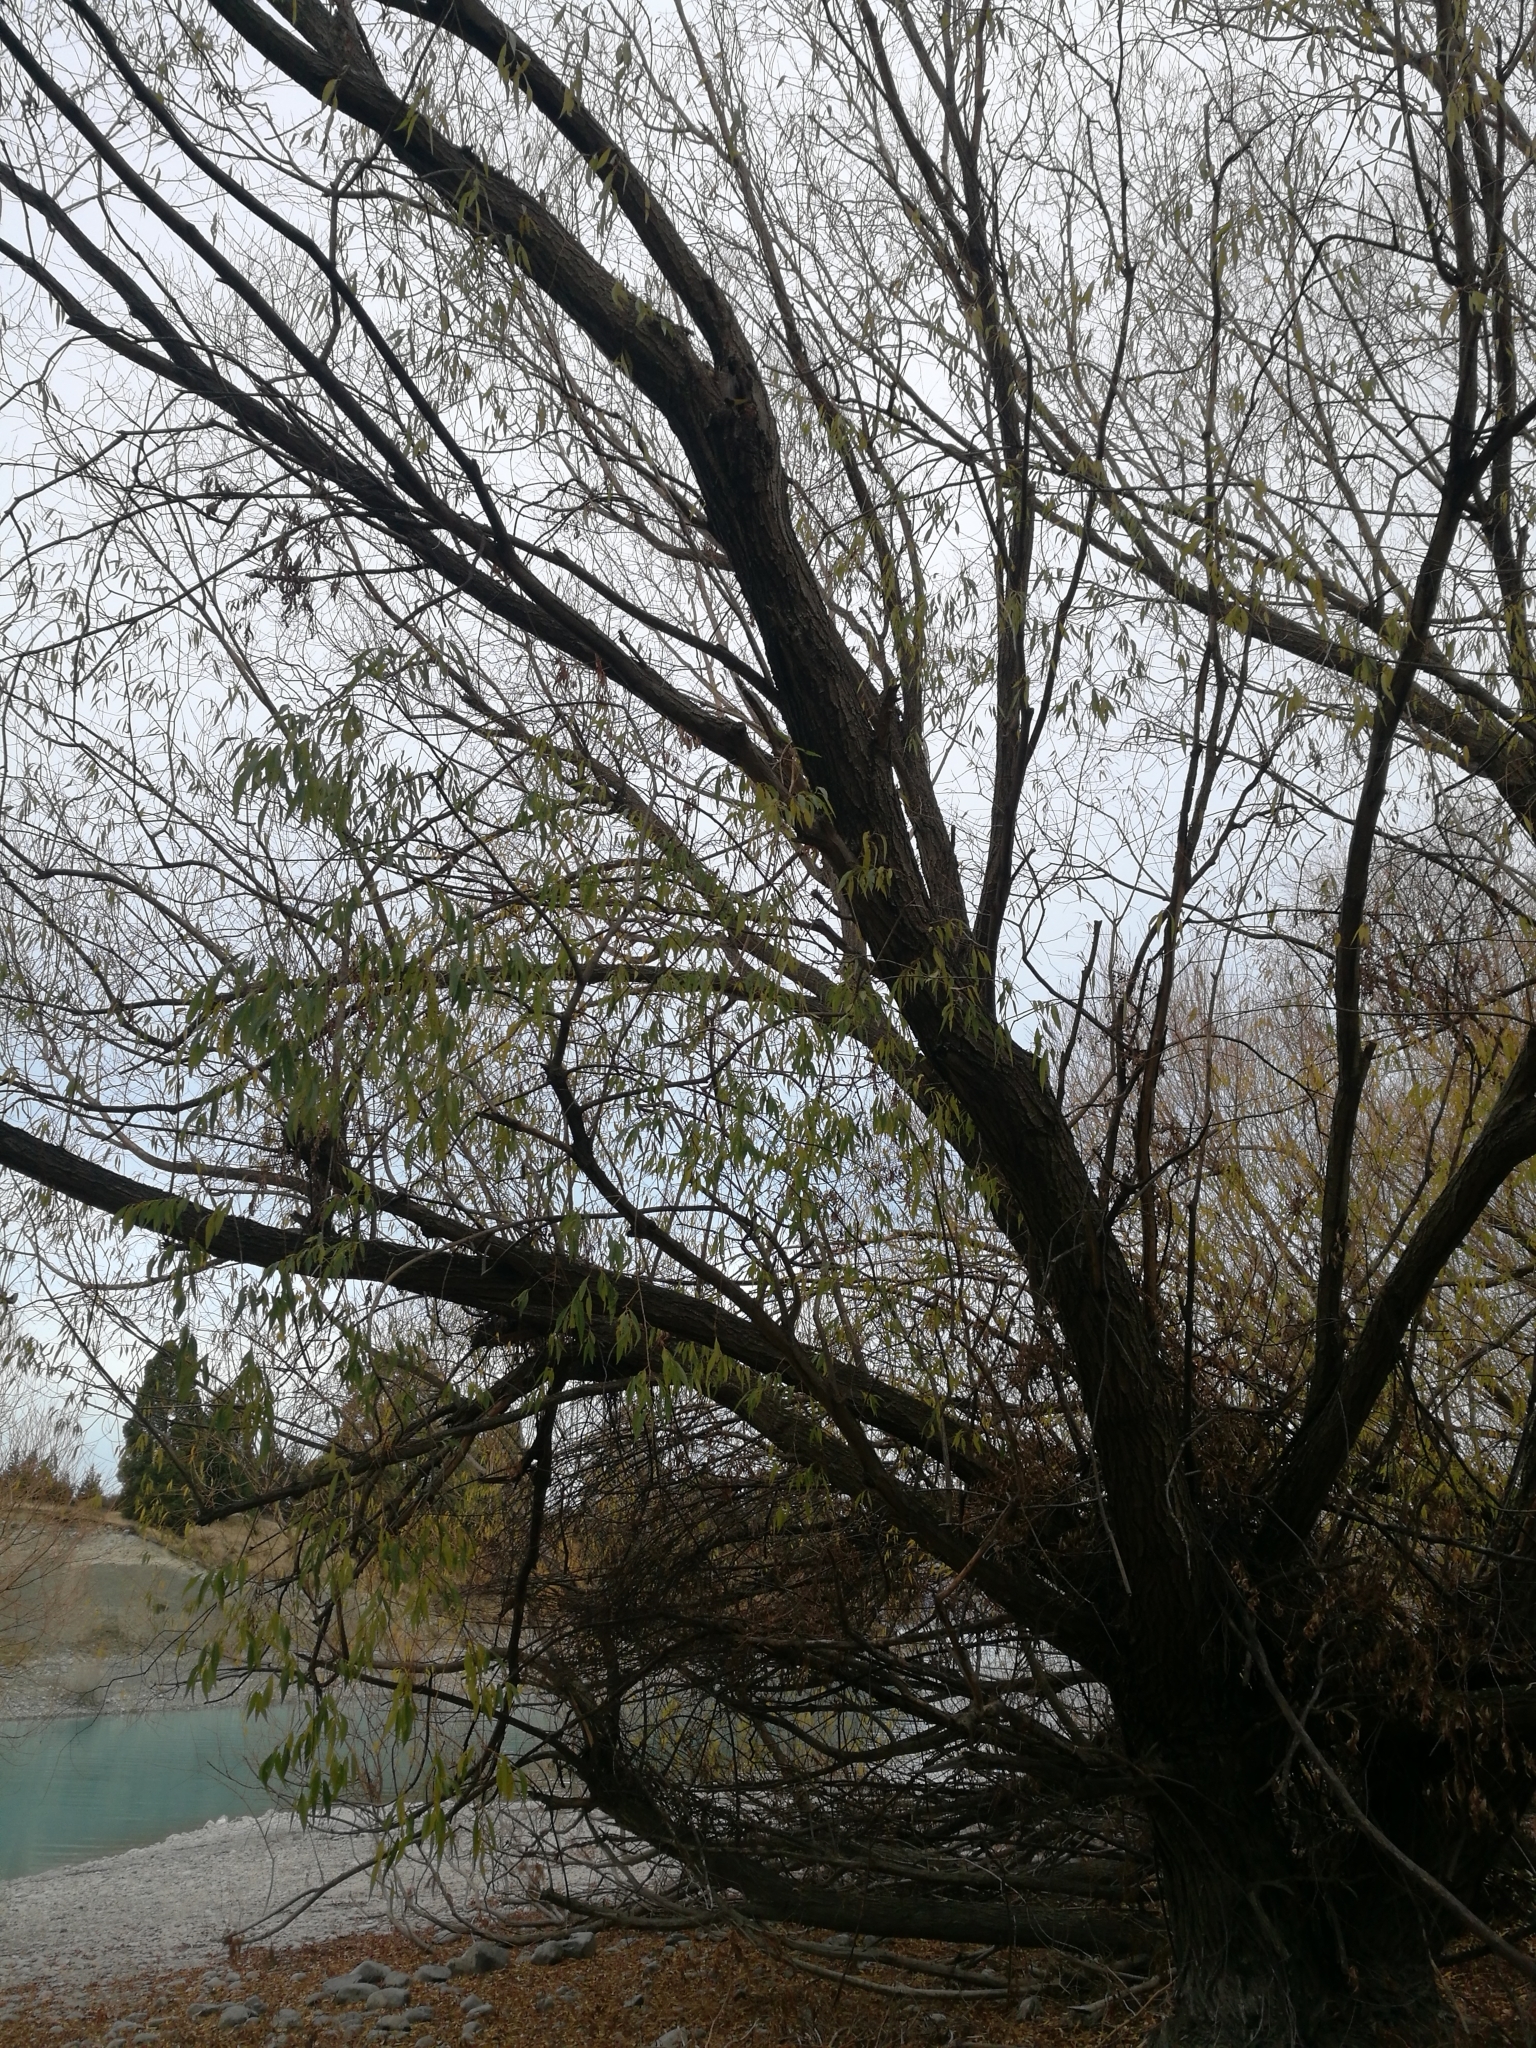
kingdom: Plantae
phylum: Tracheophyta
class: Magnoliopsida
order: Malpighiales
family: Salicaceae
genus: Salix
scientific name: Salix fragilis
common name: Crack willow
